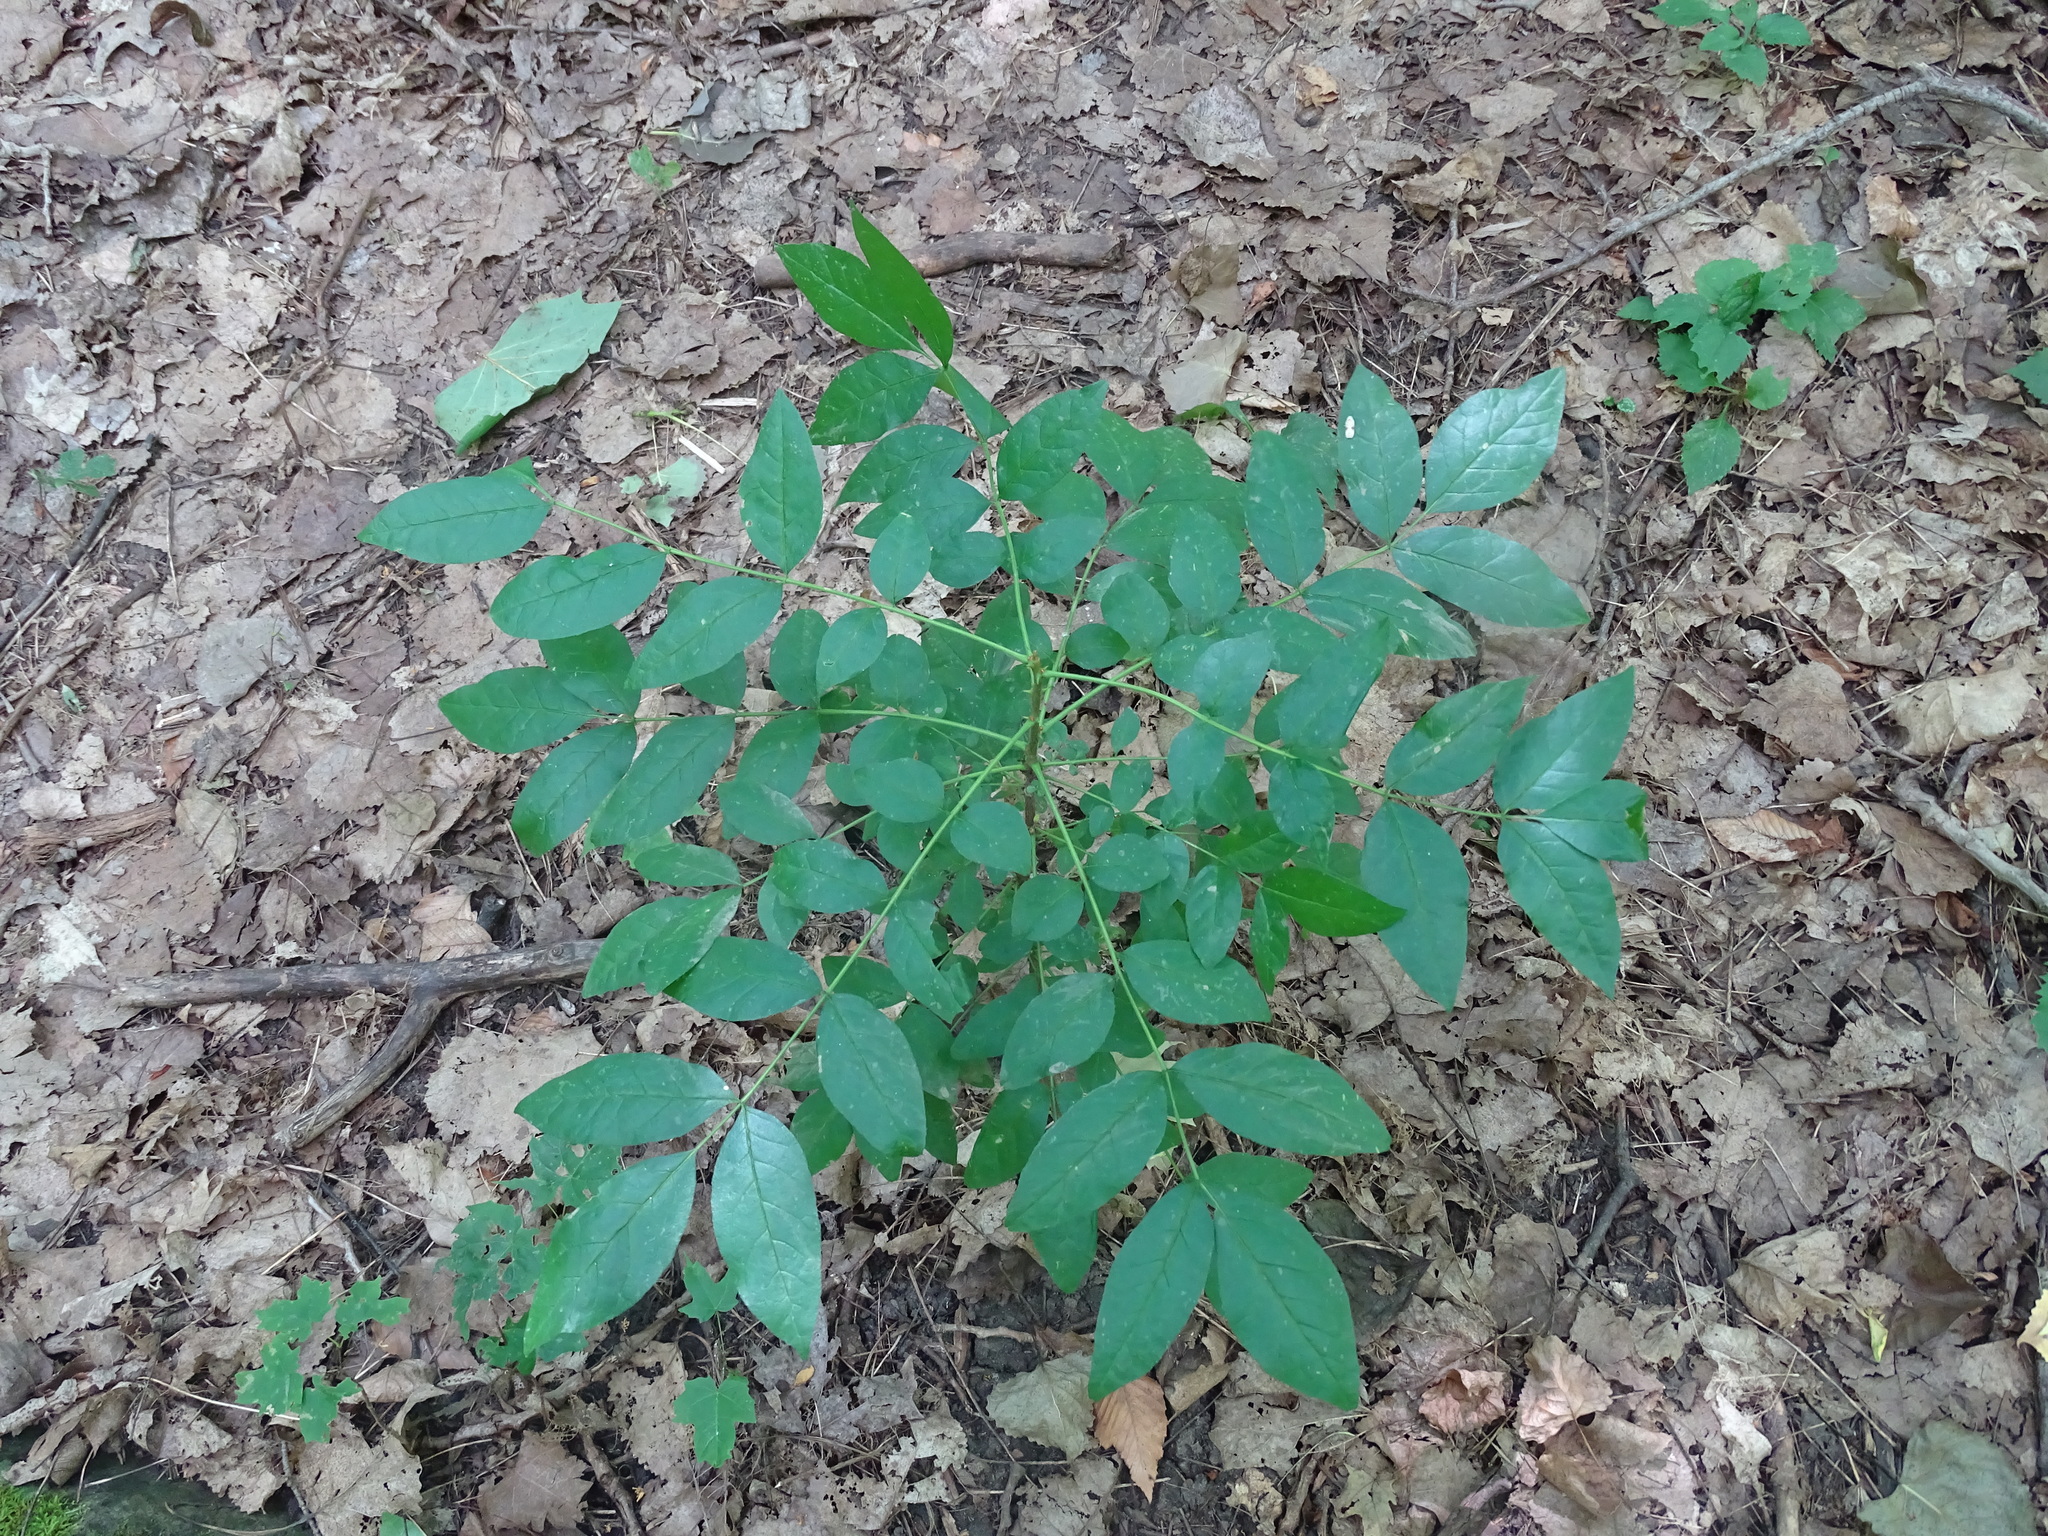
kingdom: Plantae
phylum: Tracheophyta
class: Magnoliopsida
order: Sapindales
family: Rutaceae
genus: Zanthoxylum
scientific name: Zanthoxylum americanum
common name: Northern prickly-ash
